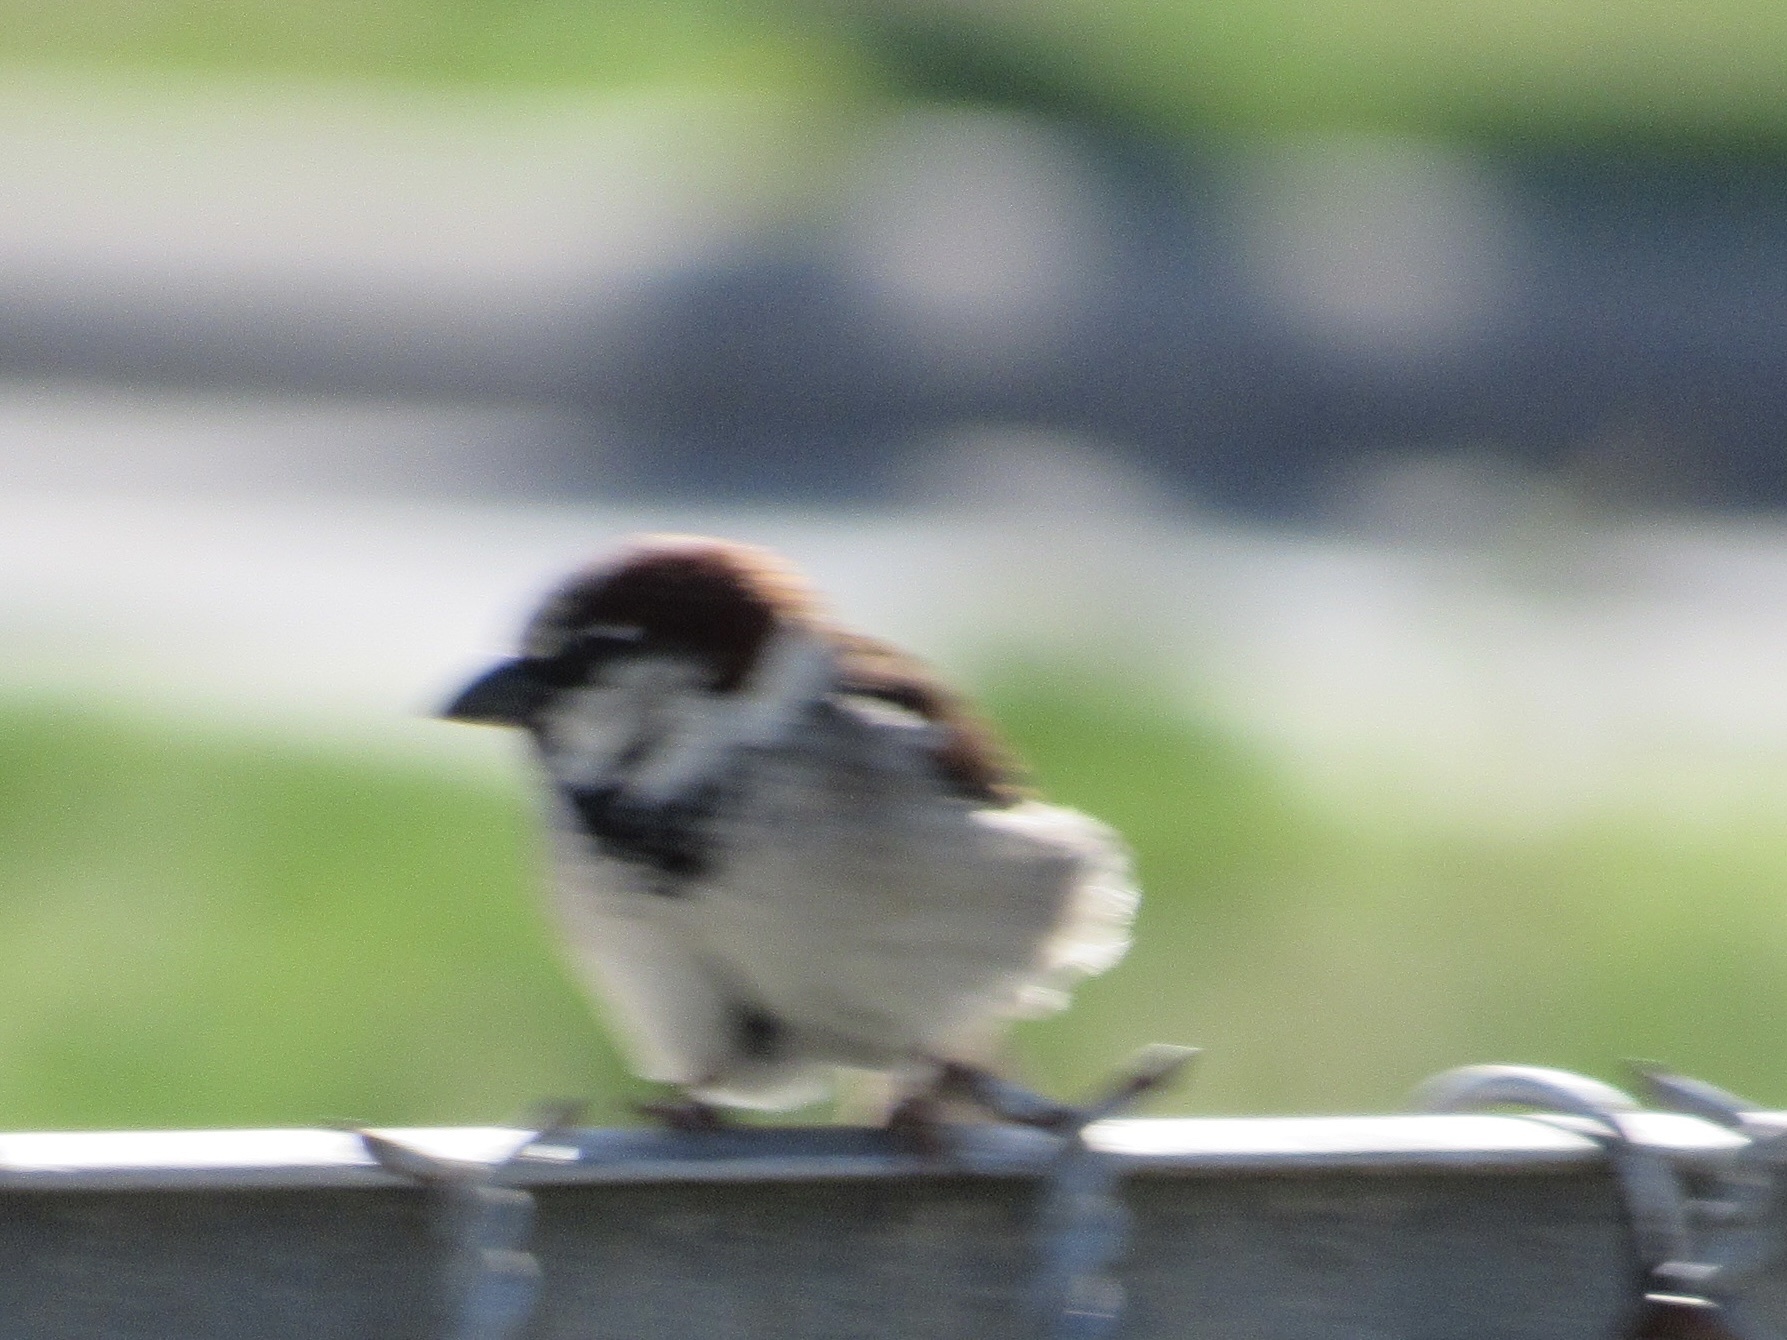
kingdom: Animalia
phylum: Chordata
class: Aves
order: Passeriformes
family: Passeridae
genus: Passer
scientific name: Passer domesticus
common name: House sparrow
